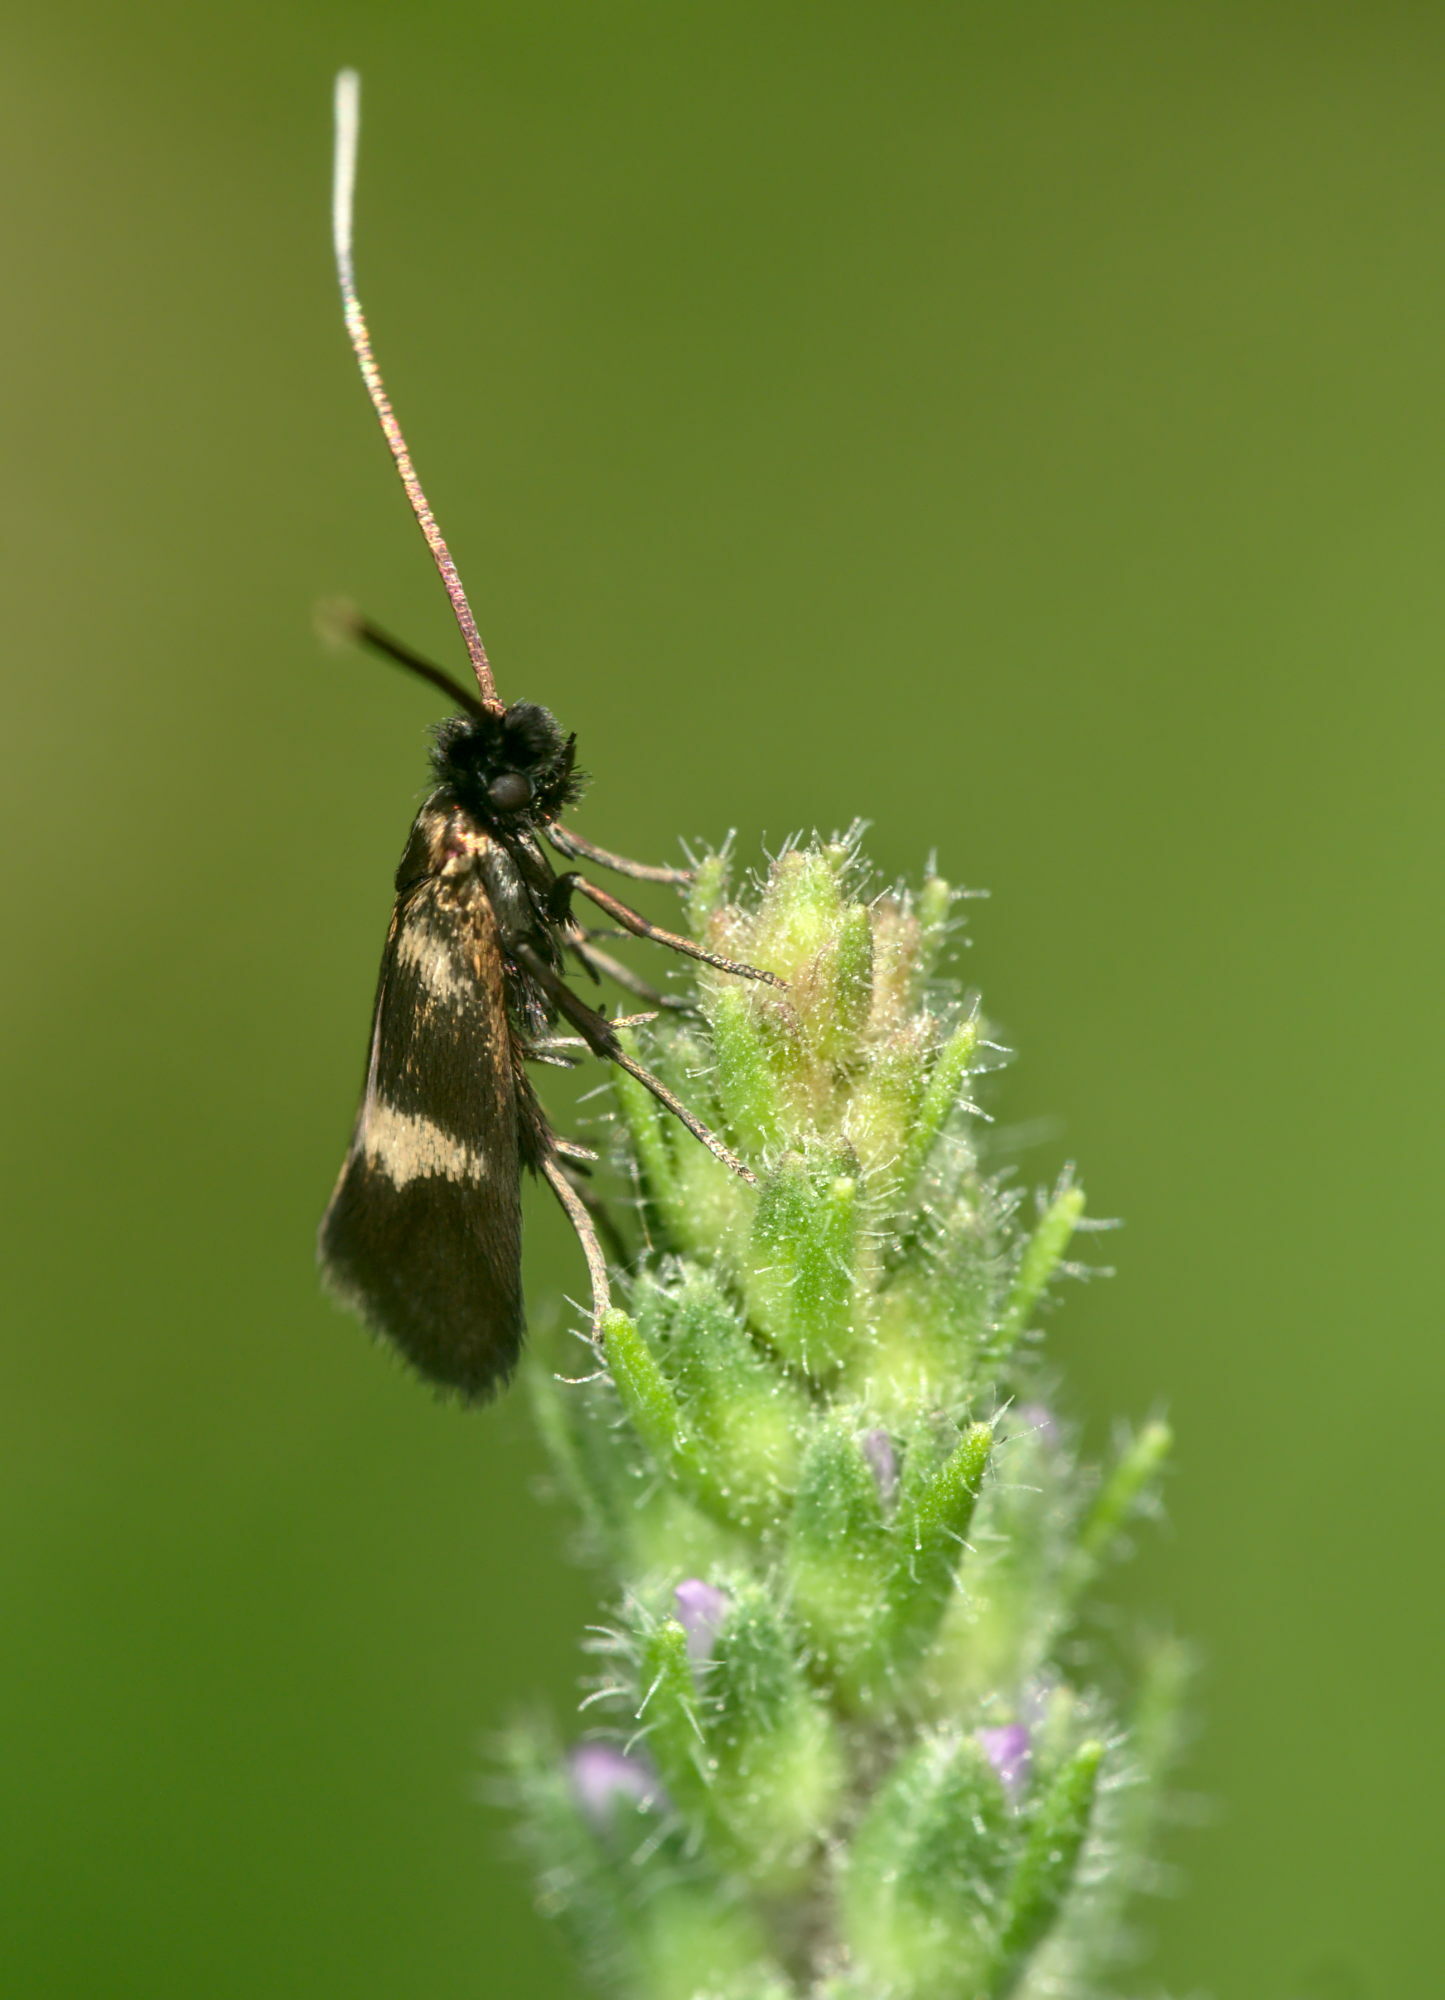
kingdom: Animalia
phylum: Arthropoda
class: Insecta
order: Lepidoptera
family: Adelidae
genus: Cauchas
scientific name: Cauchas fibulella
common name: Little long-horn
